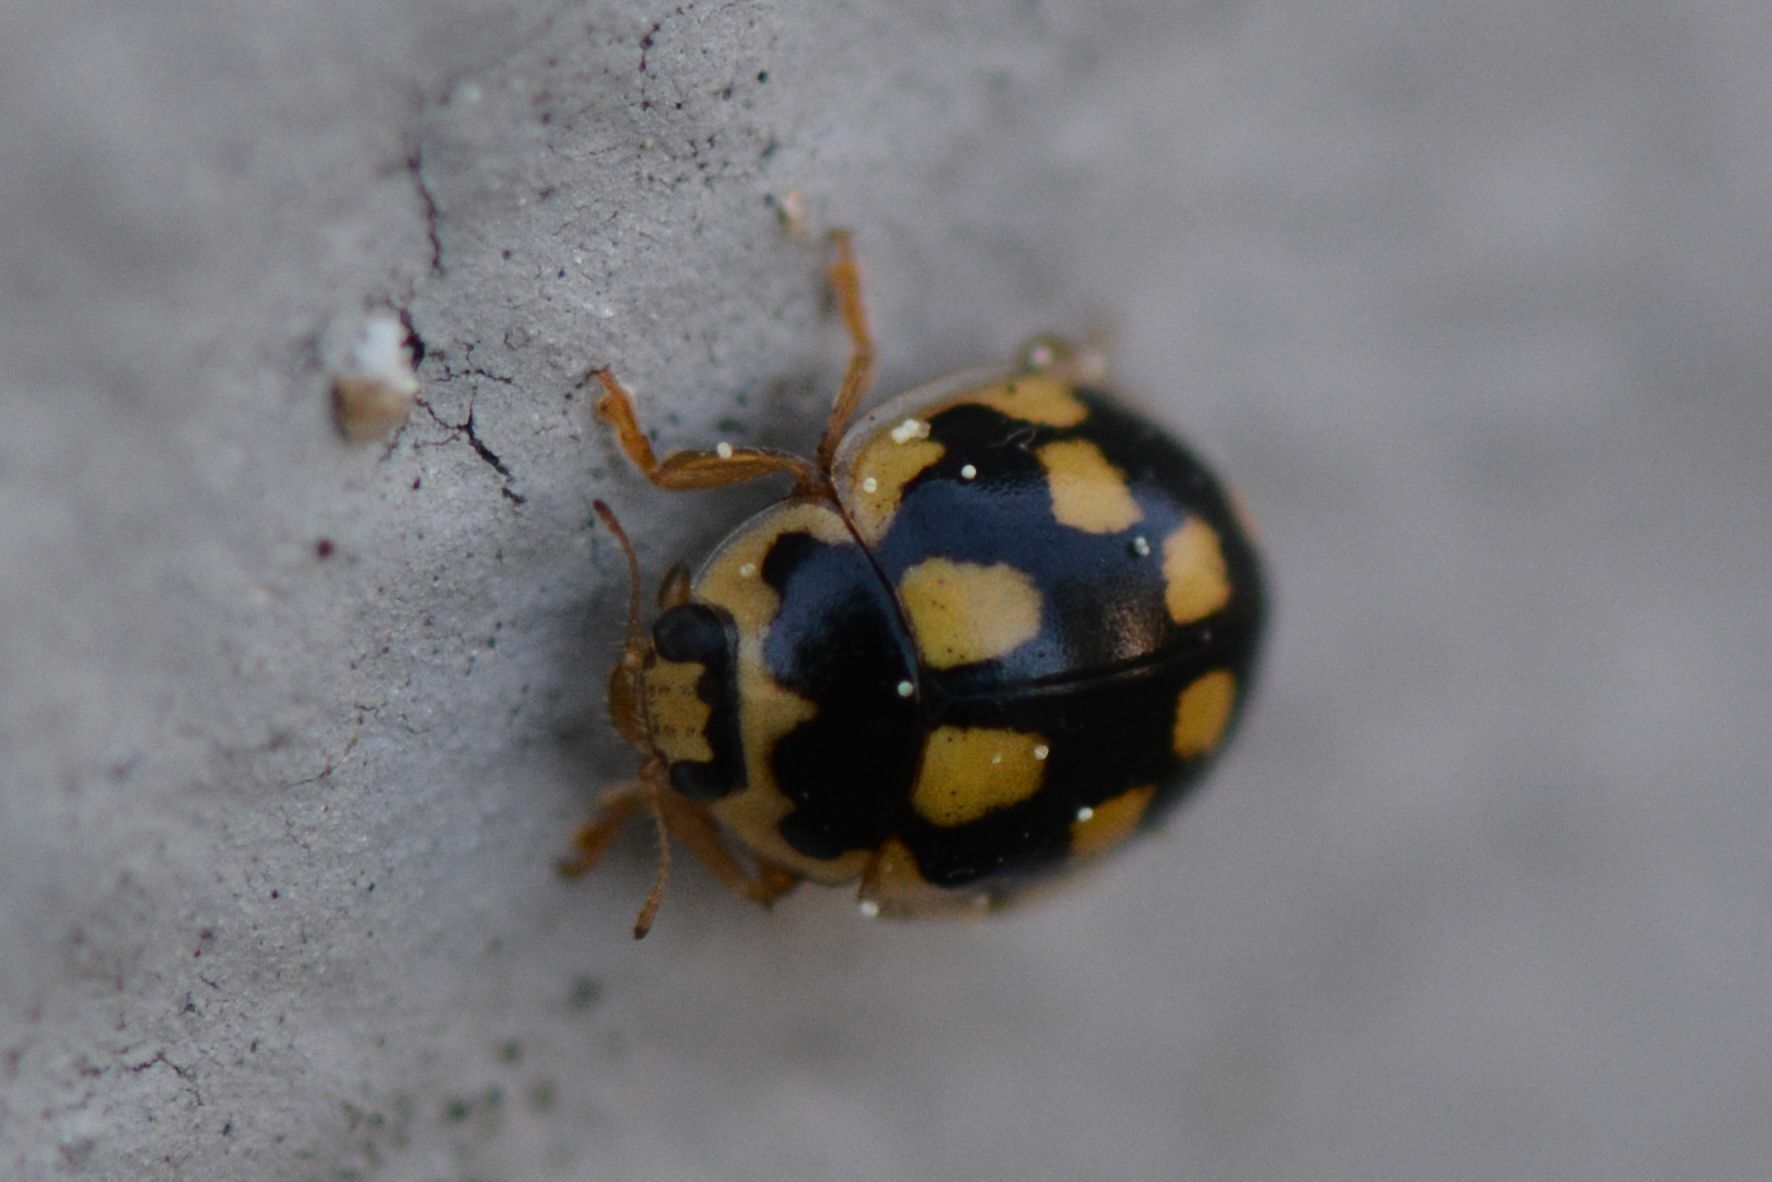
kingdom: Animalia
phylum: Arthropoda
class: Insecta
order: Coleoptera
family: Coccinellidae
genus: Propylaea
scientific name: Propylaea quatuordecimpunctata
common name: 14-spotted ladybird beetle
